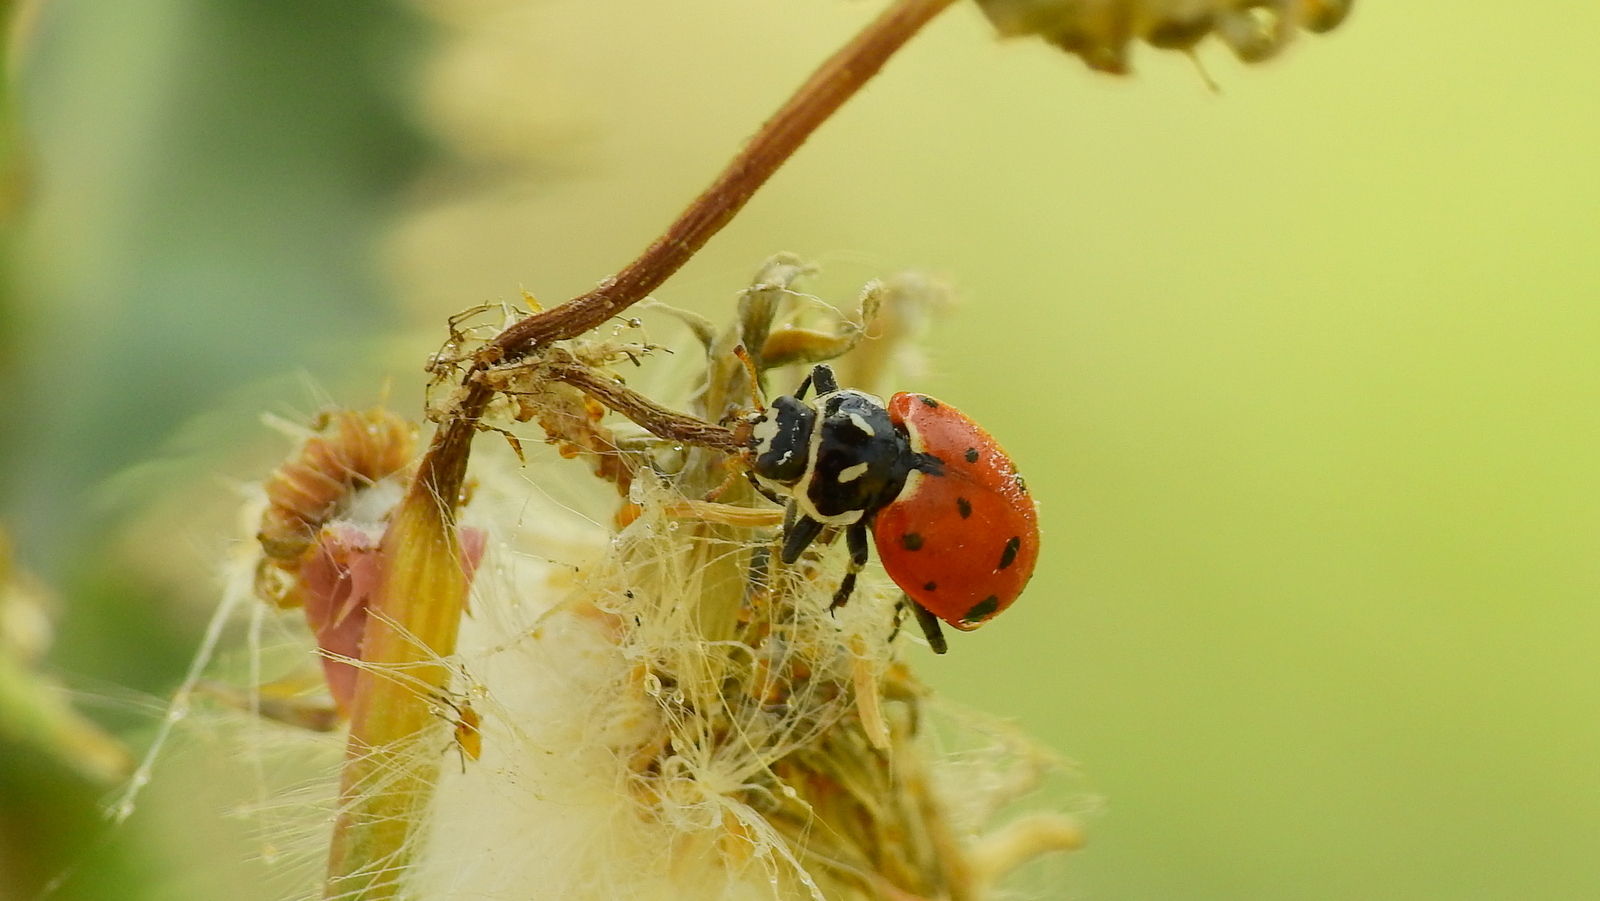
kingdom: Animalia
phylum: Arthropoda
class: Insecta
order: Coleoptera
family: Coccinellidae
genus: Hippodamia
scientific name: Hippodamia convergens
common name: Convergent lady beetle
